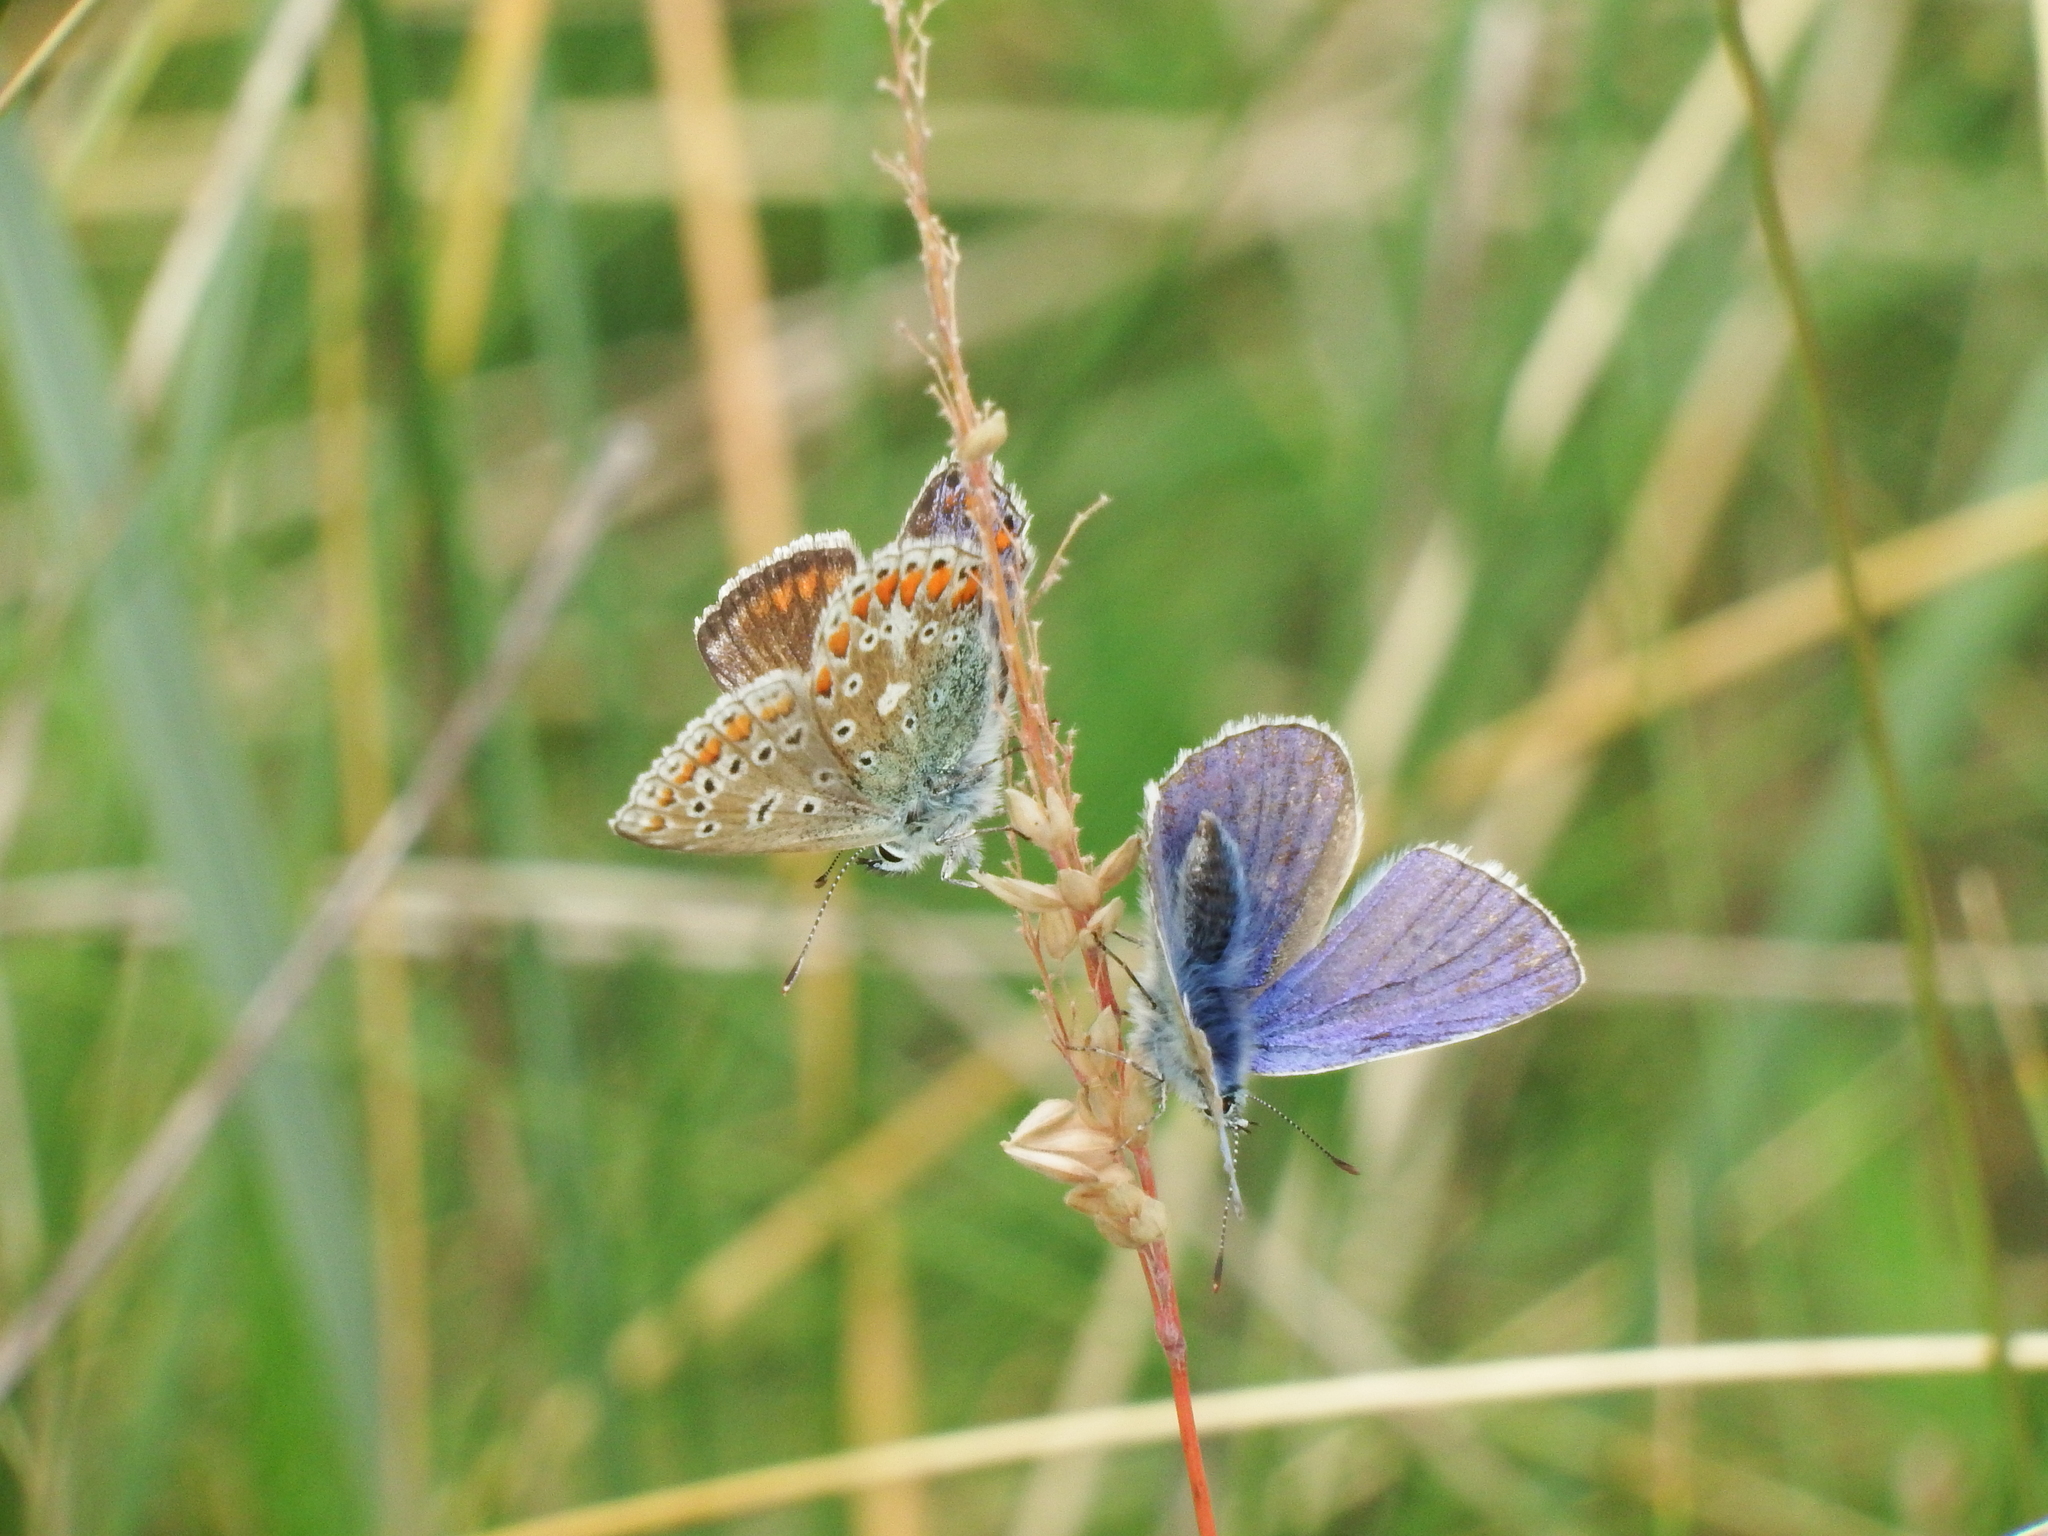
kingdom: Animalia
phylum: Arthropoda
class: Insecta
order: Lepidoptera
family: Lycaenidae
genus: Polyommatus
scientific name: Polyommatus icarus
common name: Common blue
